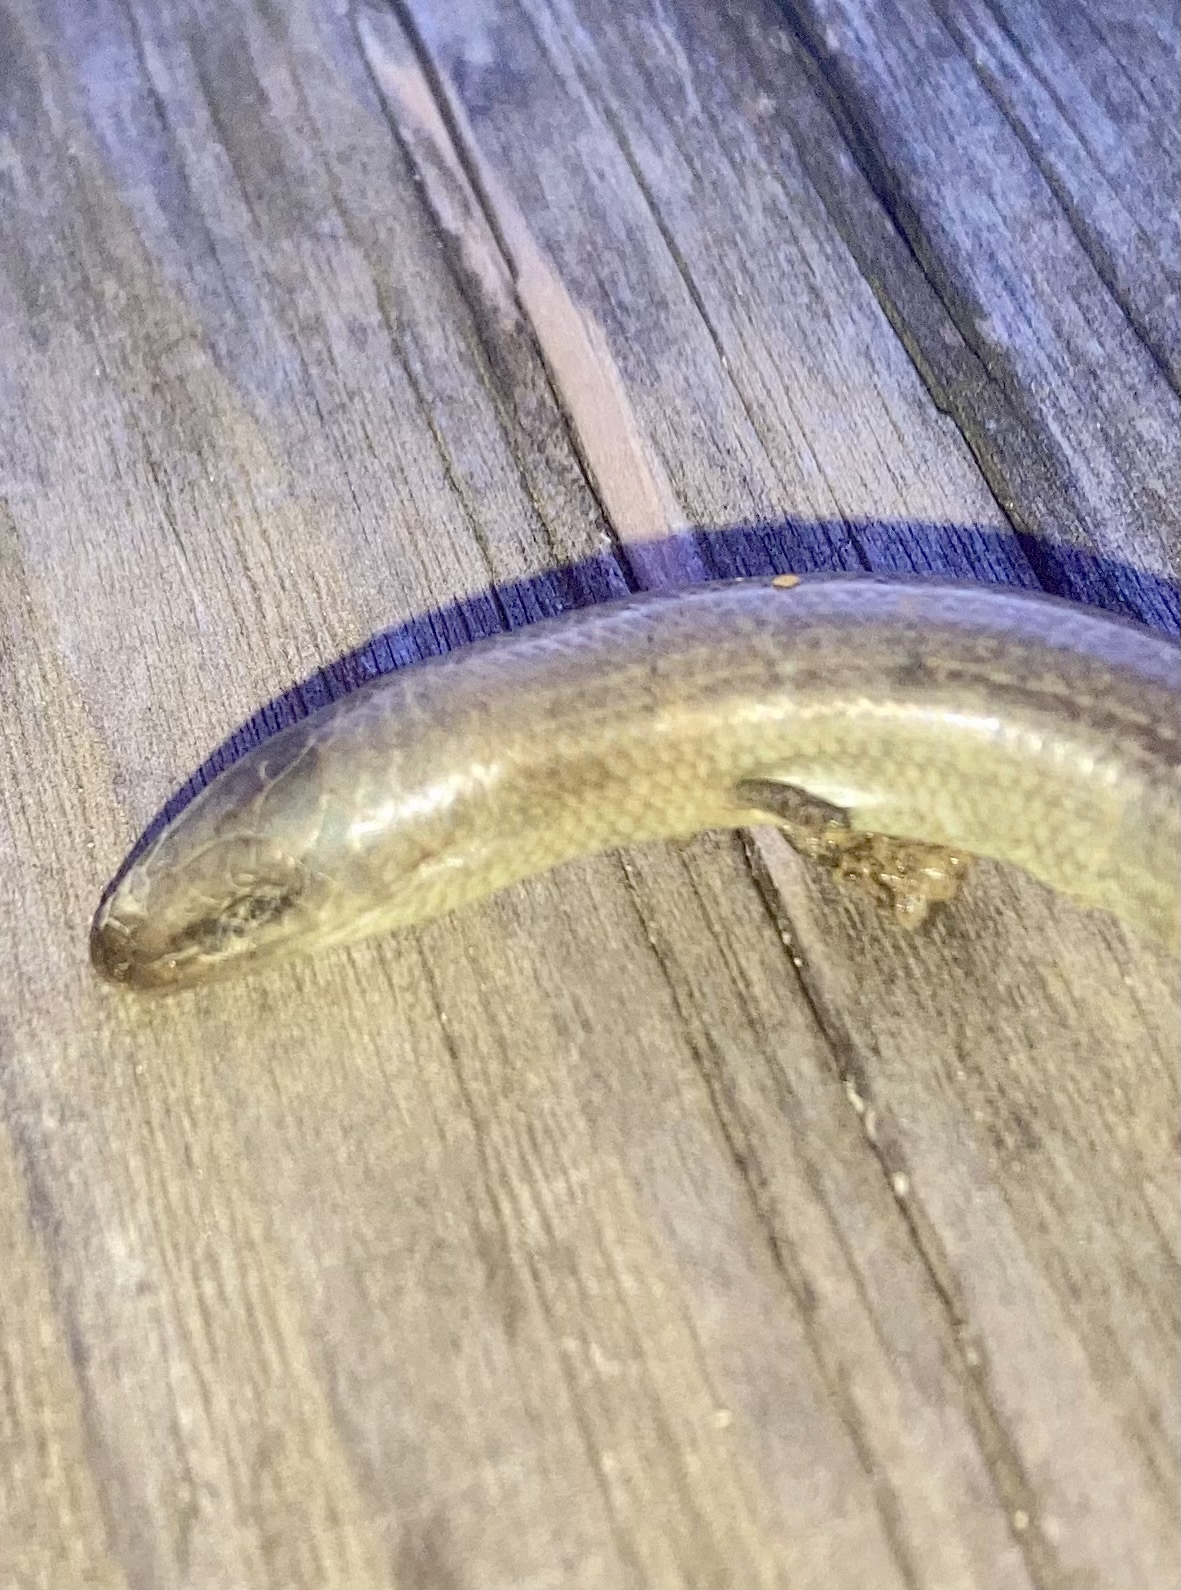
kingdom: Animalia
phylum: Chordata
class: Squamata
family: Scincidae
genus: Chalcides
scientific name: Chalcides chalcides
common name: Italian three-toed skink
